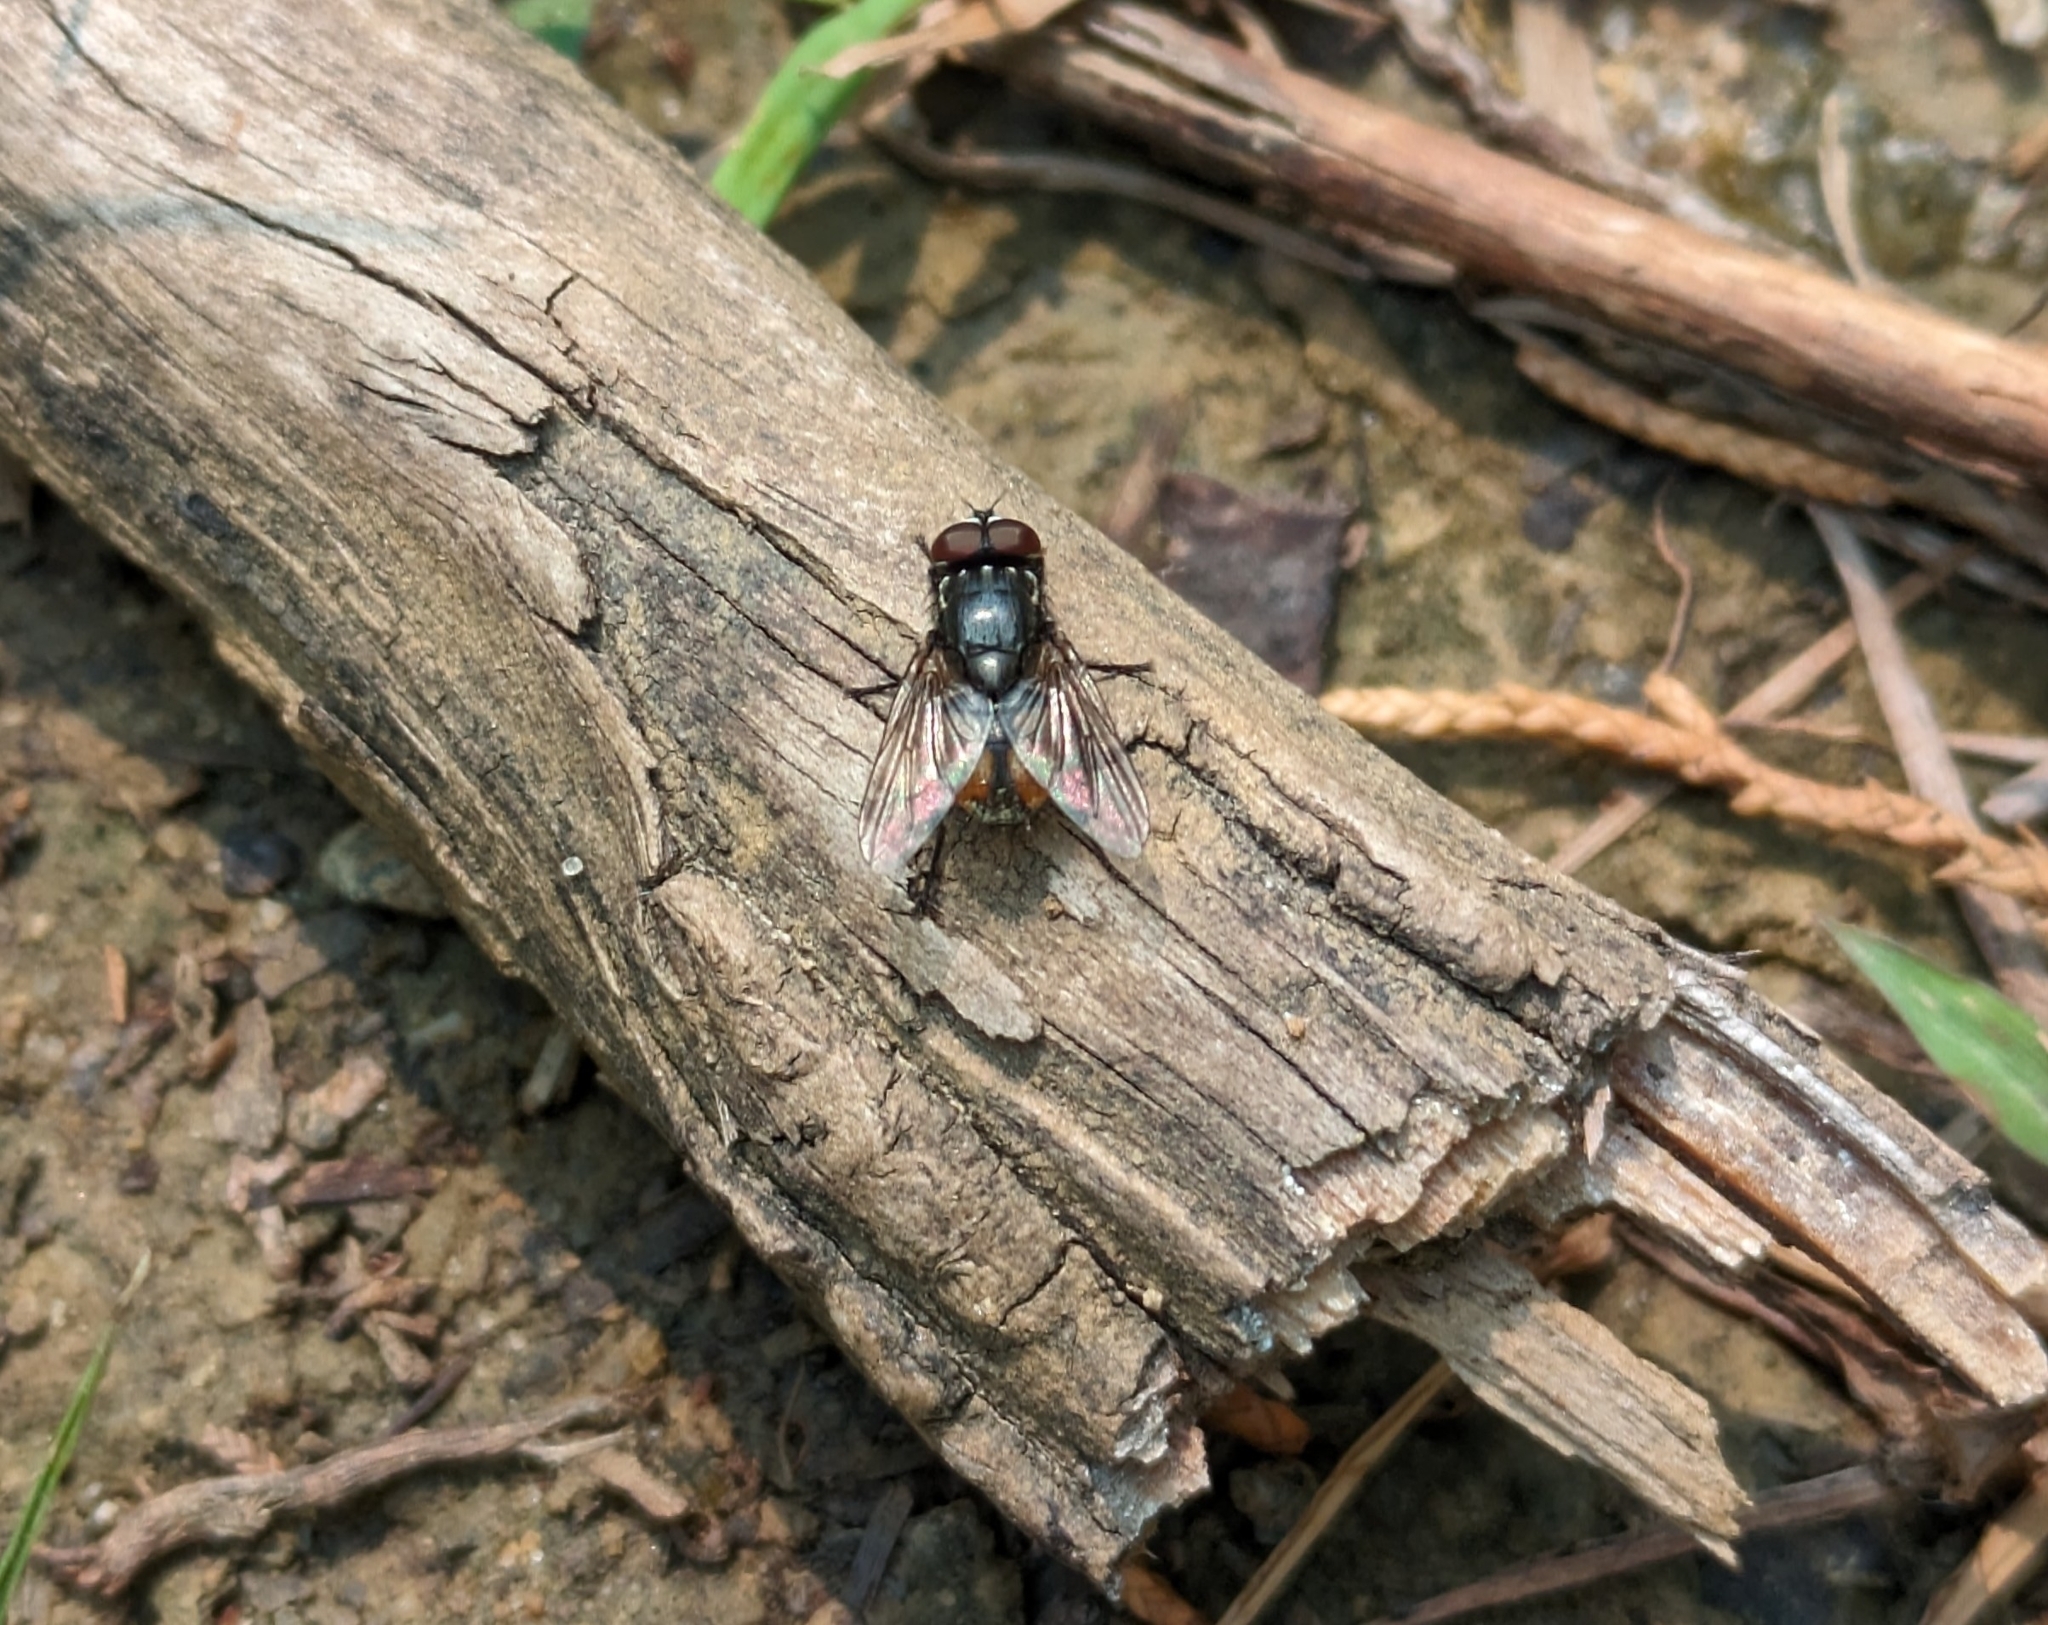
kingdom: Animalia
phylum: Arthropoda
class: Insecta
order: Diptera
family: Muscidae
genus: Musca
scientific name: Musca autumnalis
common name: Face fly
